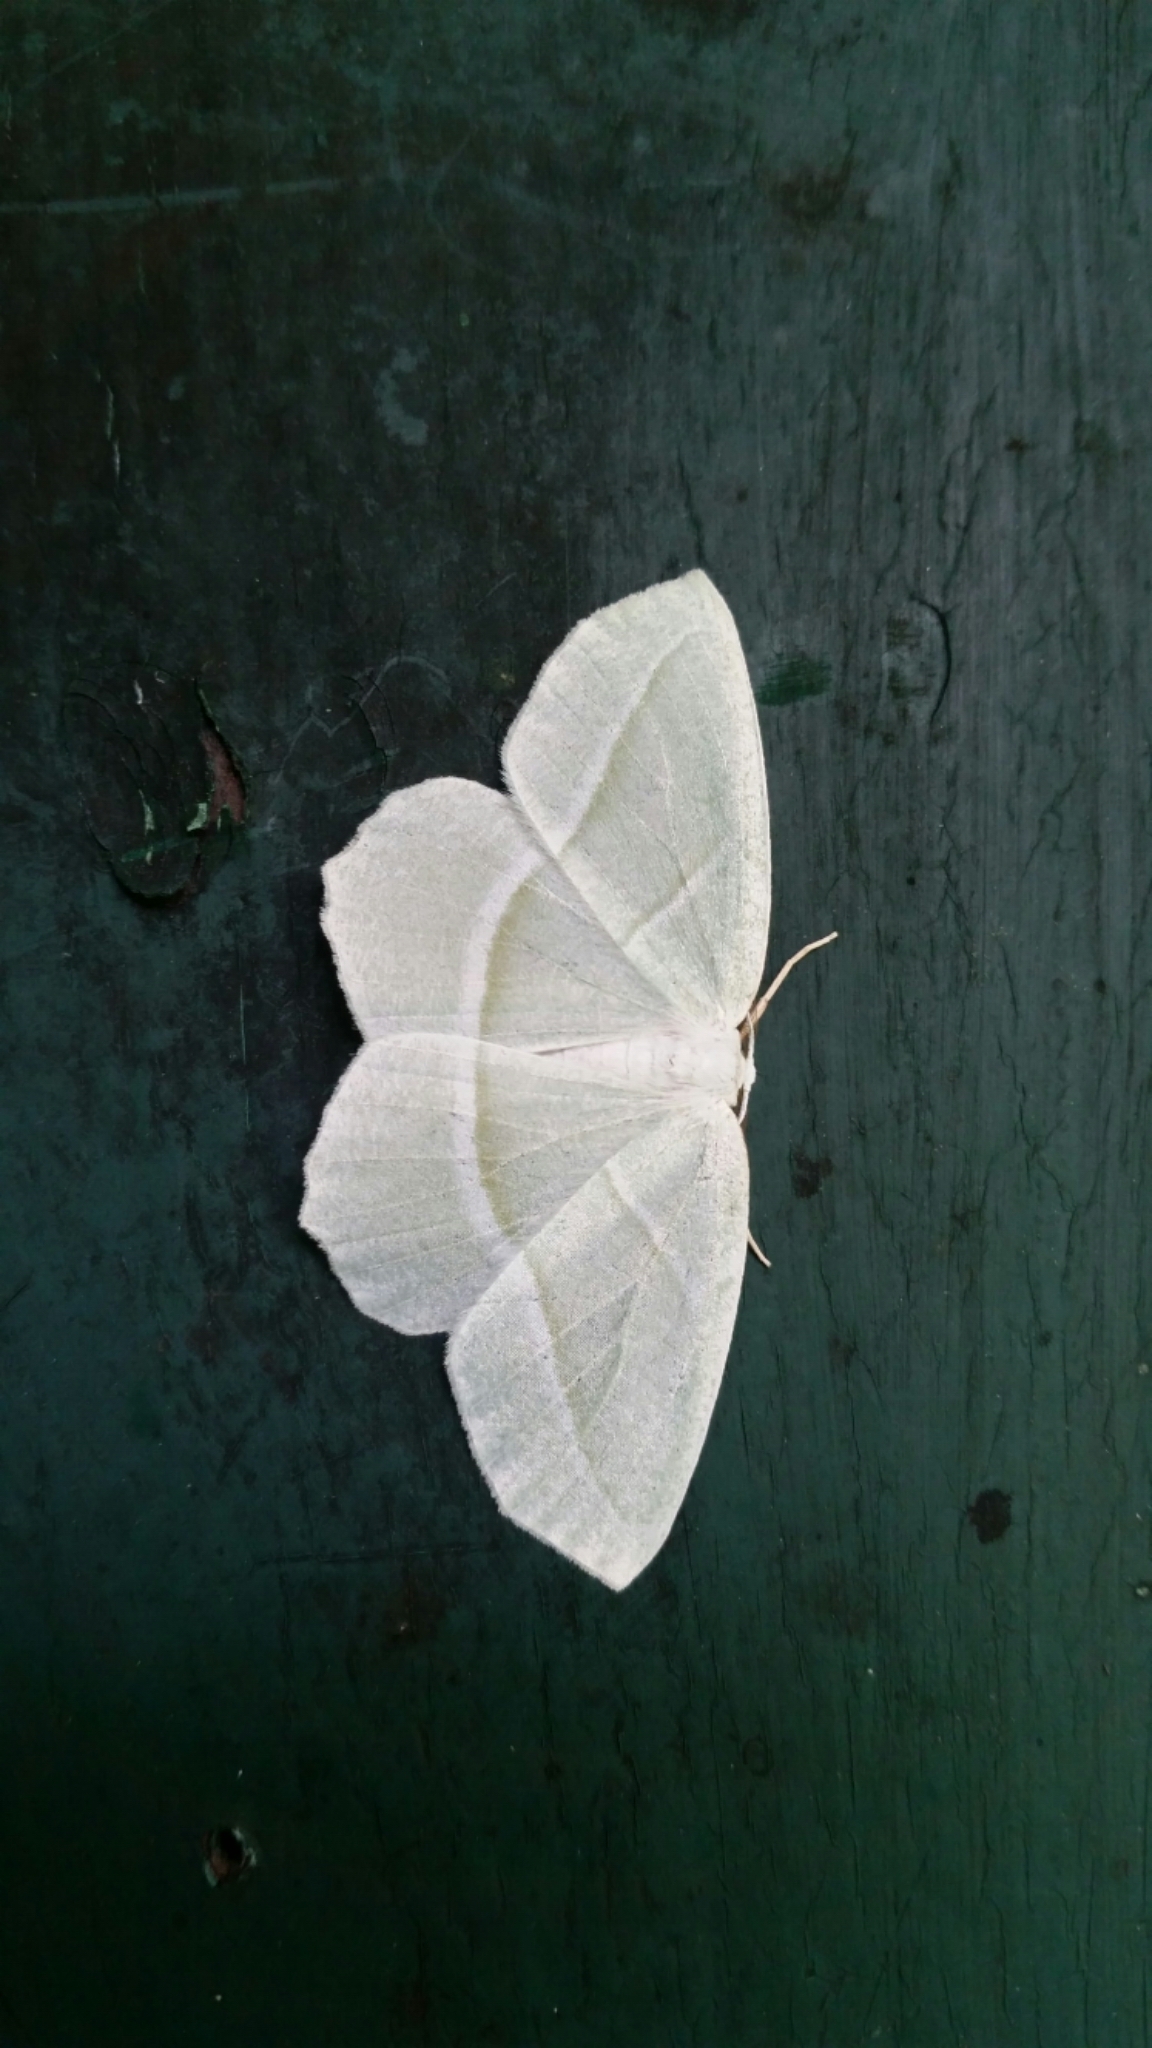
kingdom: Animalia
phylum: Arthropoda
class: Insecta
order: Lepidoptera
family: Geometridae
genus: Campaea
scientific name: Campaea perlata
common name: Fringed looper
